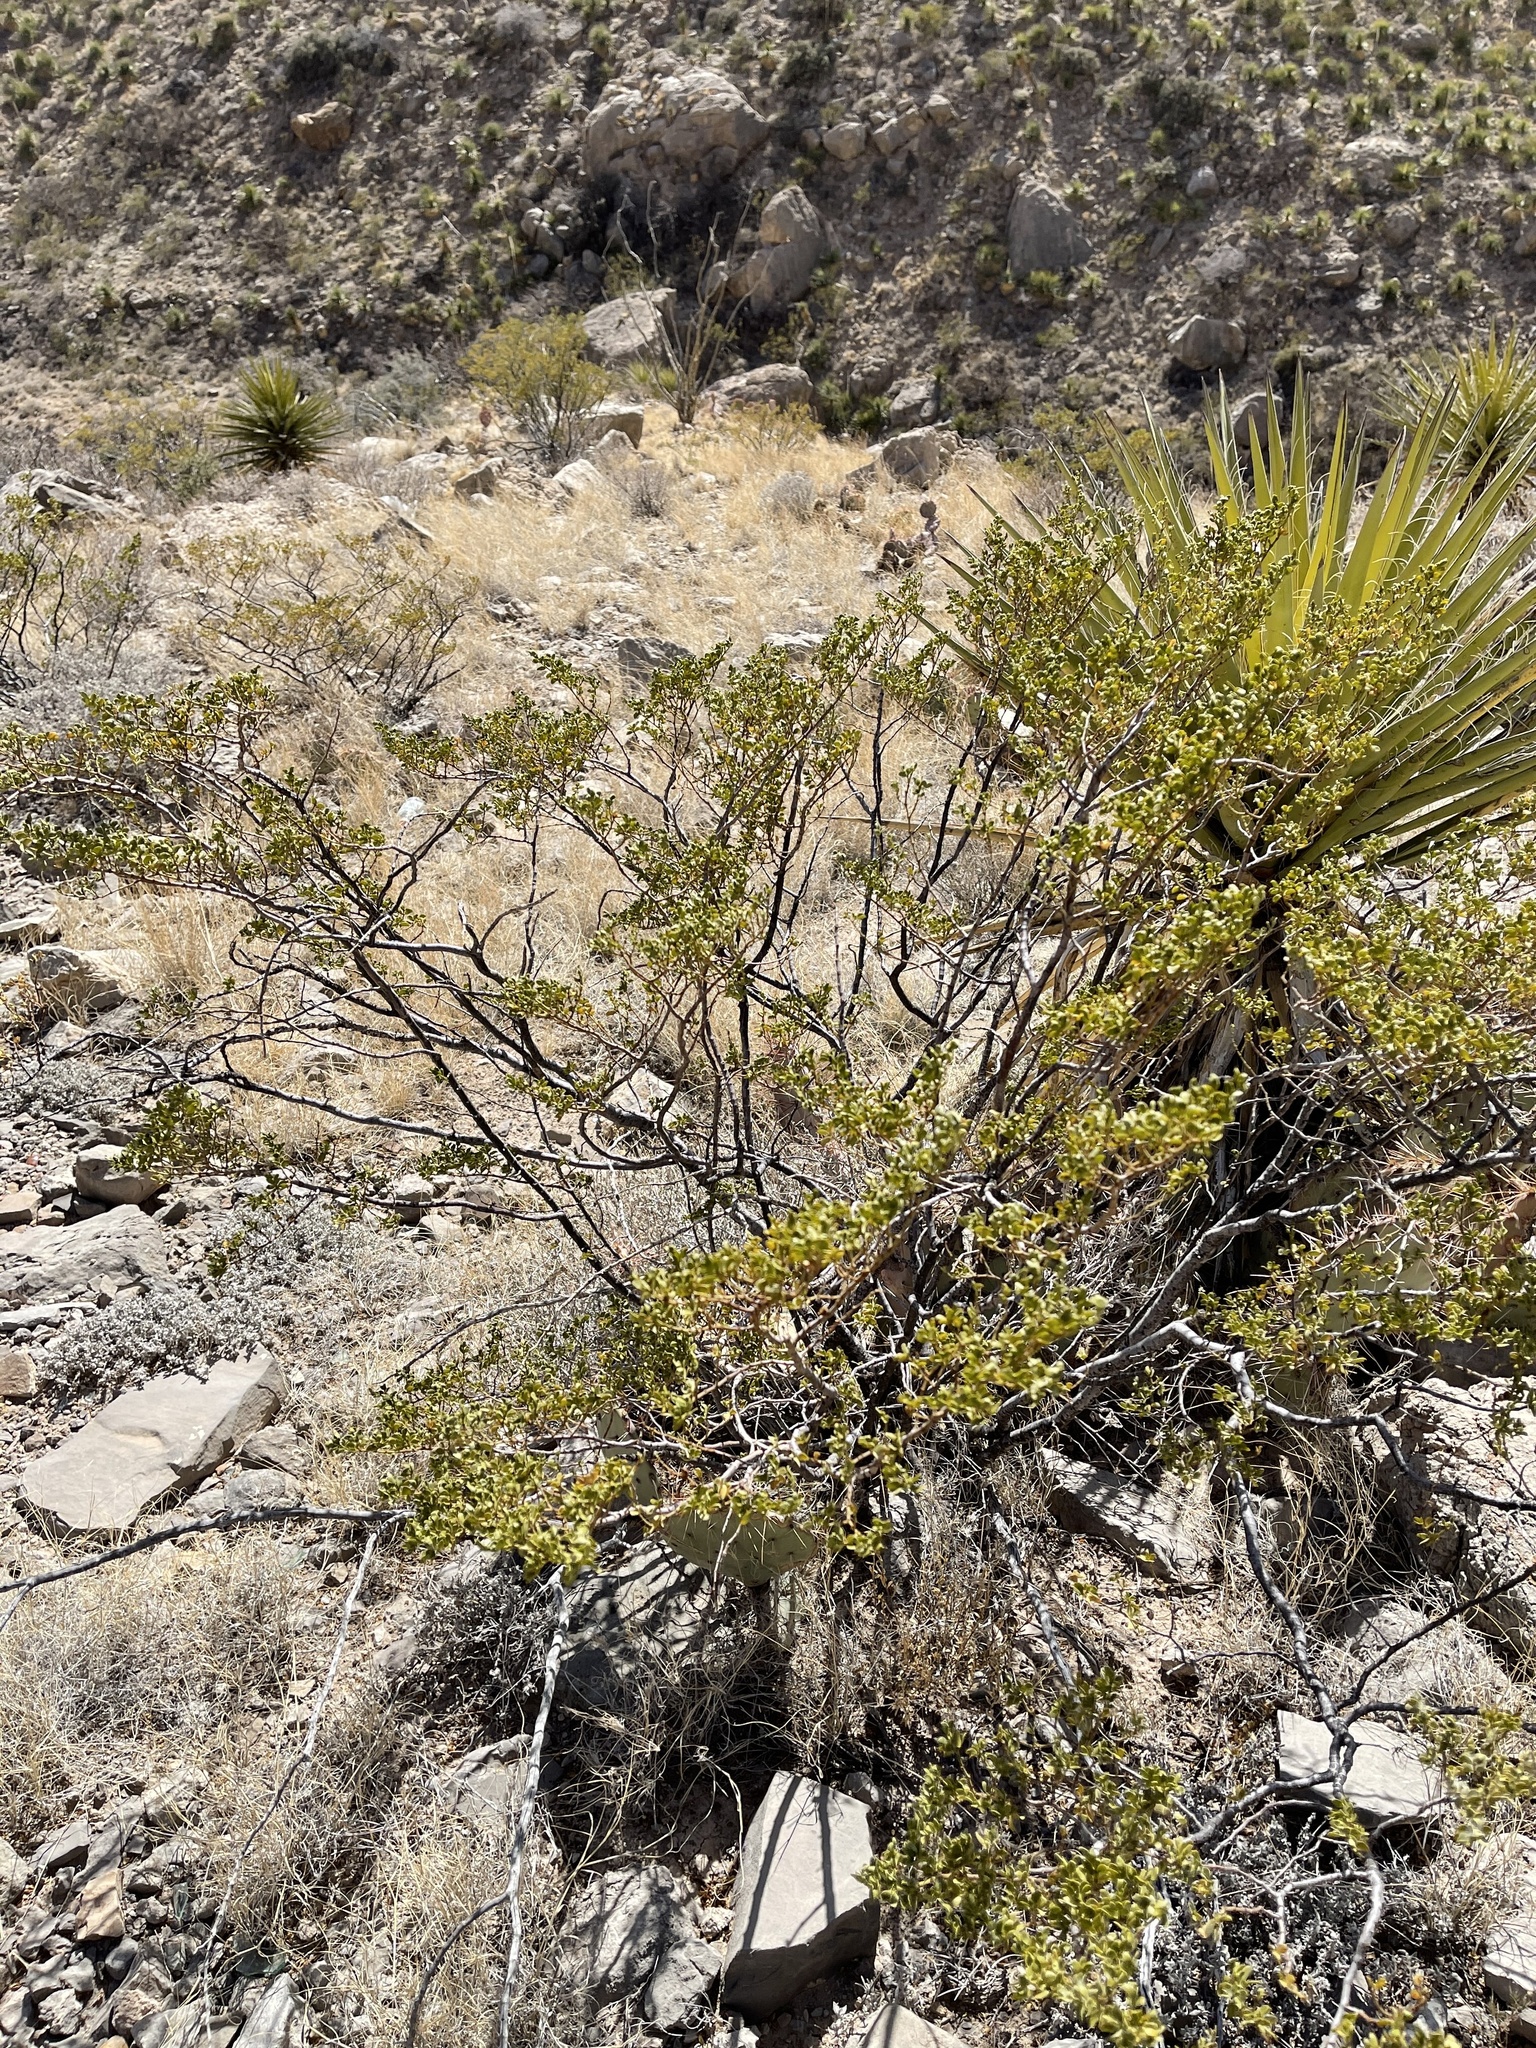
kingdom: Plantae
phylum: Tracheophyta
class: Magnoliopsida
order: Zygophyllales
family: Zygophyllaceae
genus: Larrea
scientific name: Larrea tridentata
